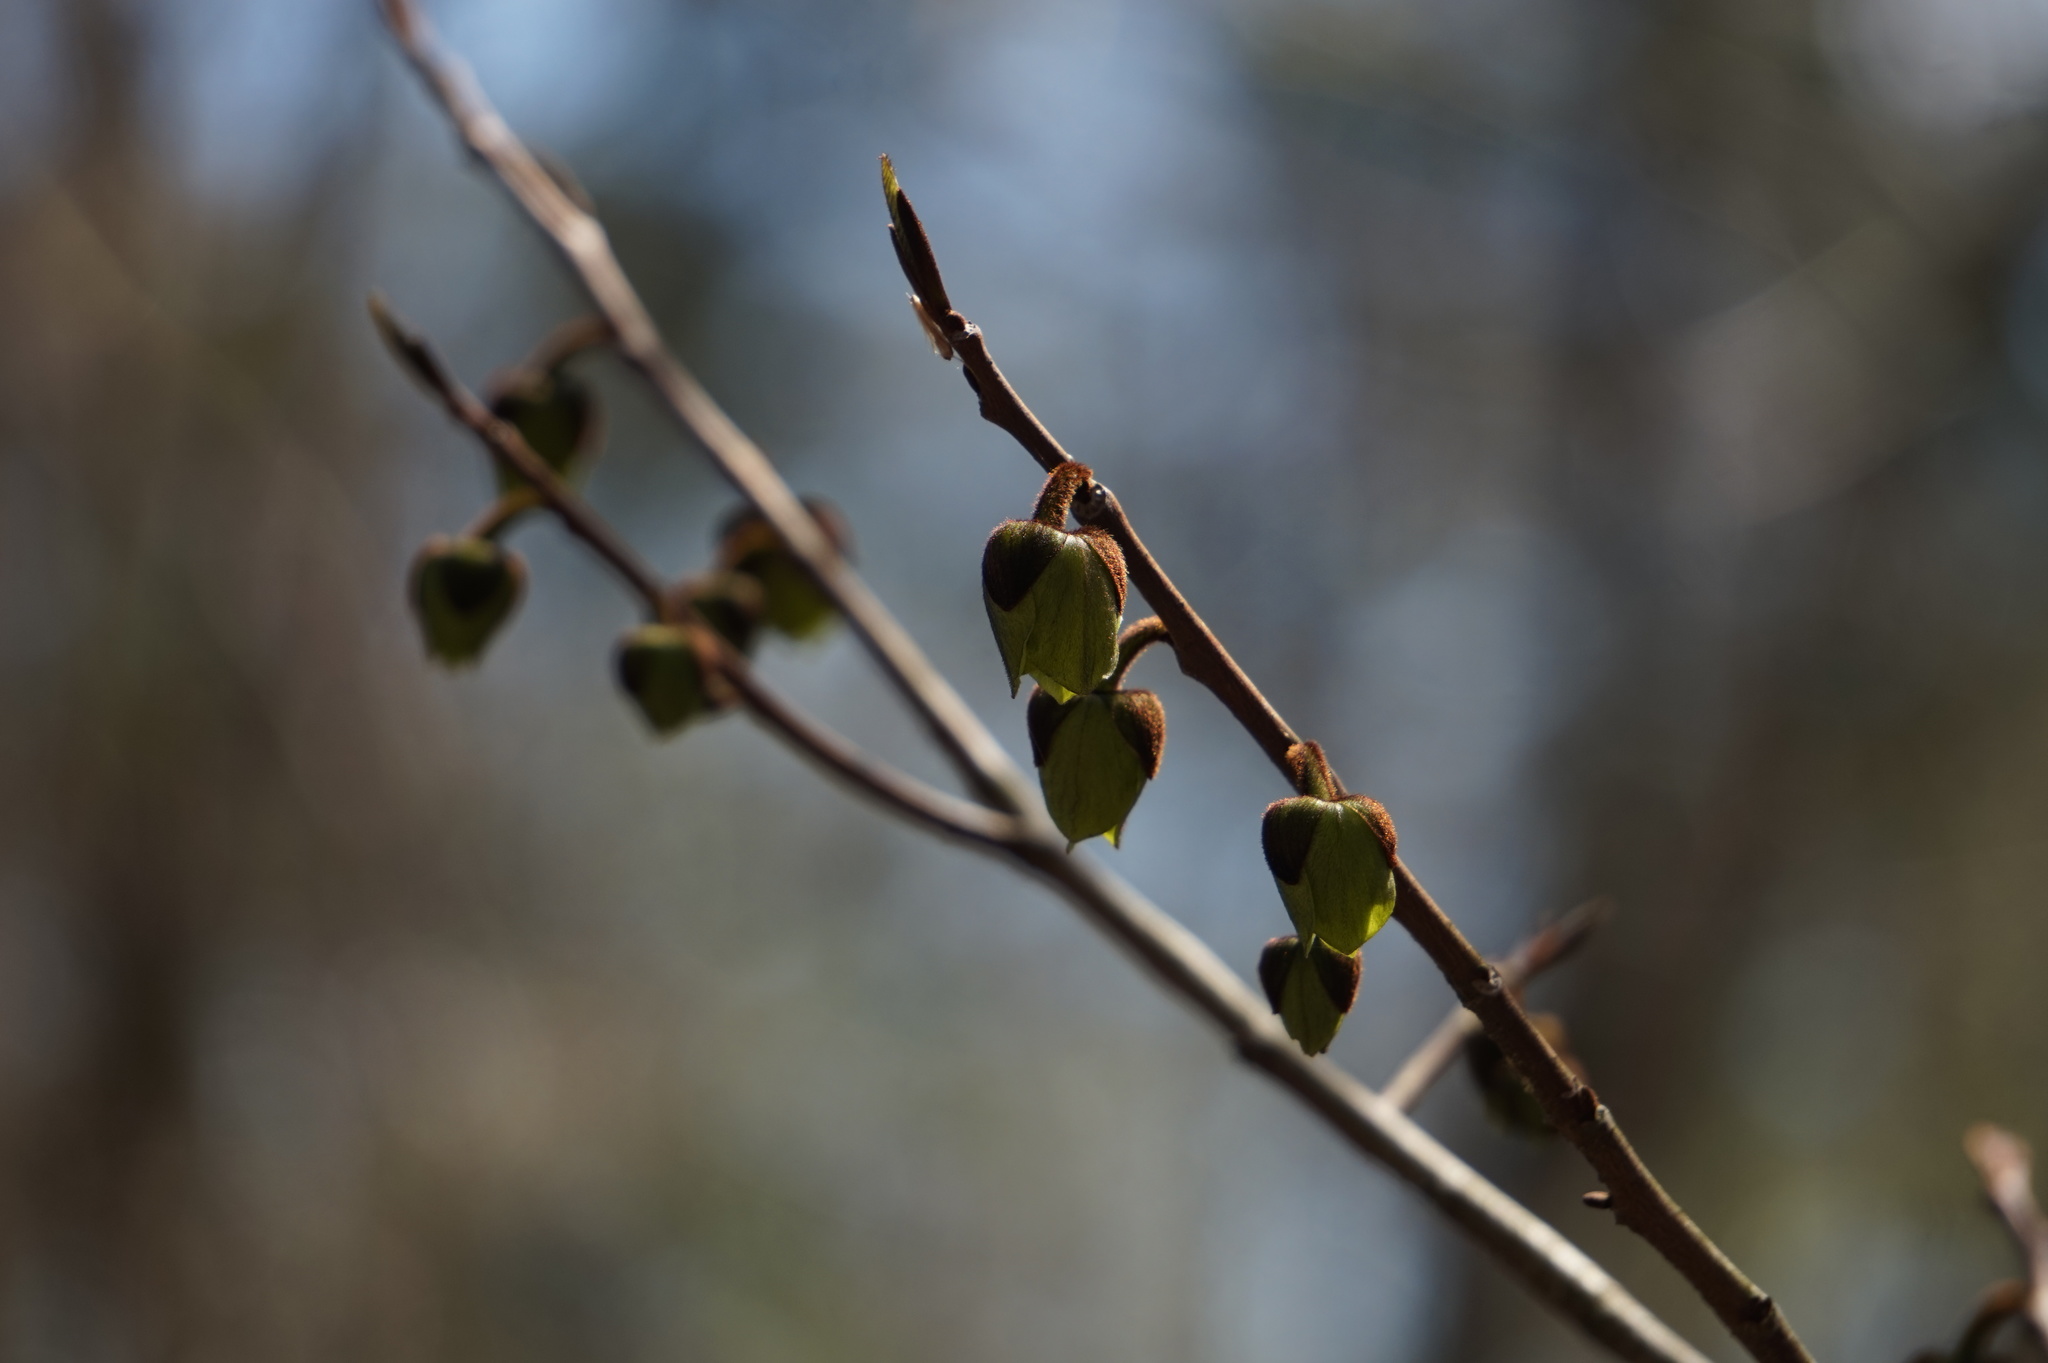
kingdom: Plantae
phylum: Tracheophyta
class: Magnoliopsida
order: Magnoliales
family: Annonaceae
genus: Asimina
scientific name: Asimina triloba
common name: Dog-banana
